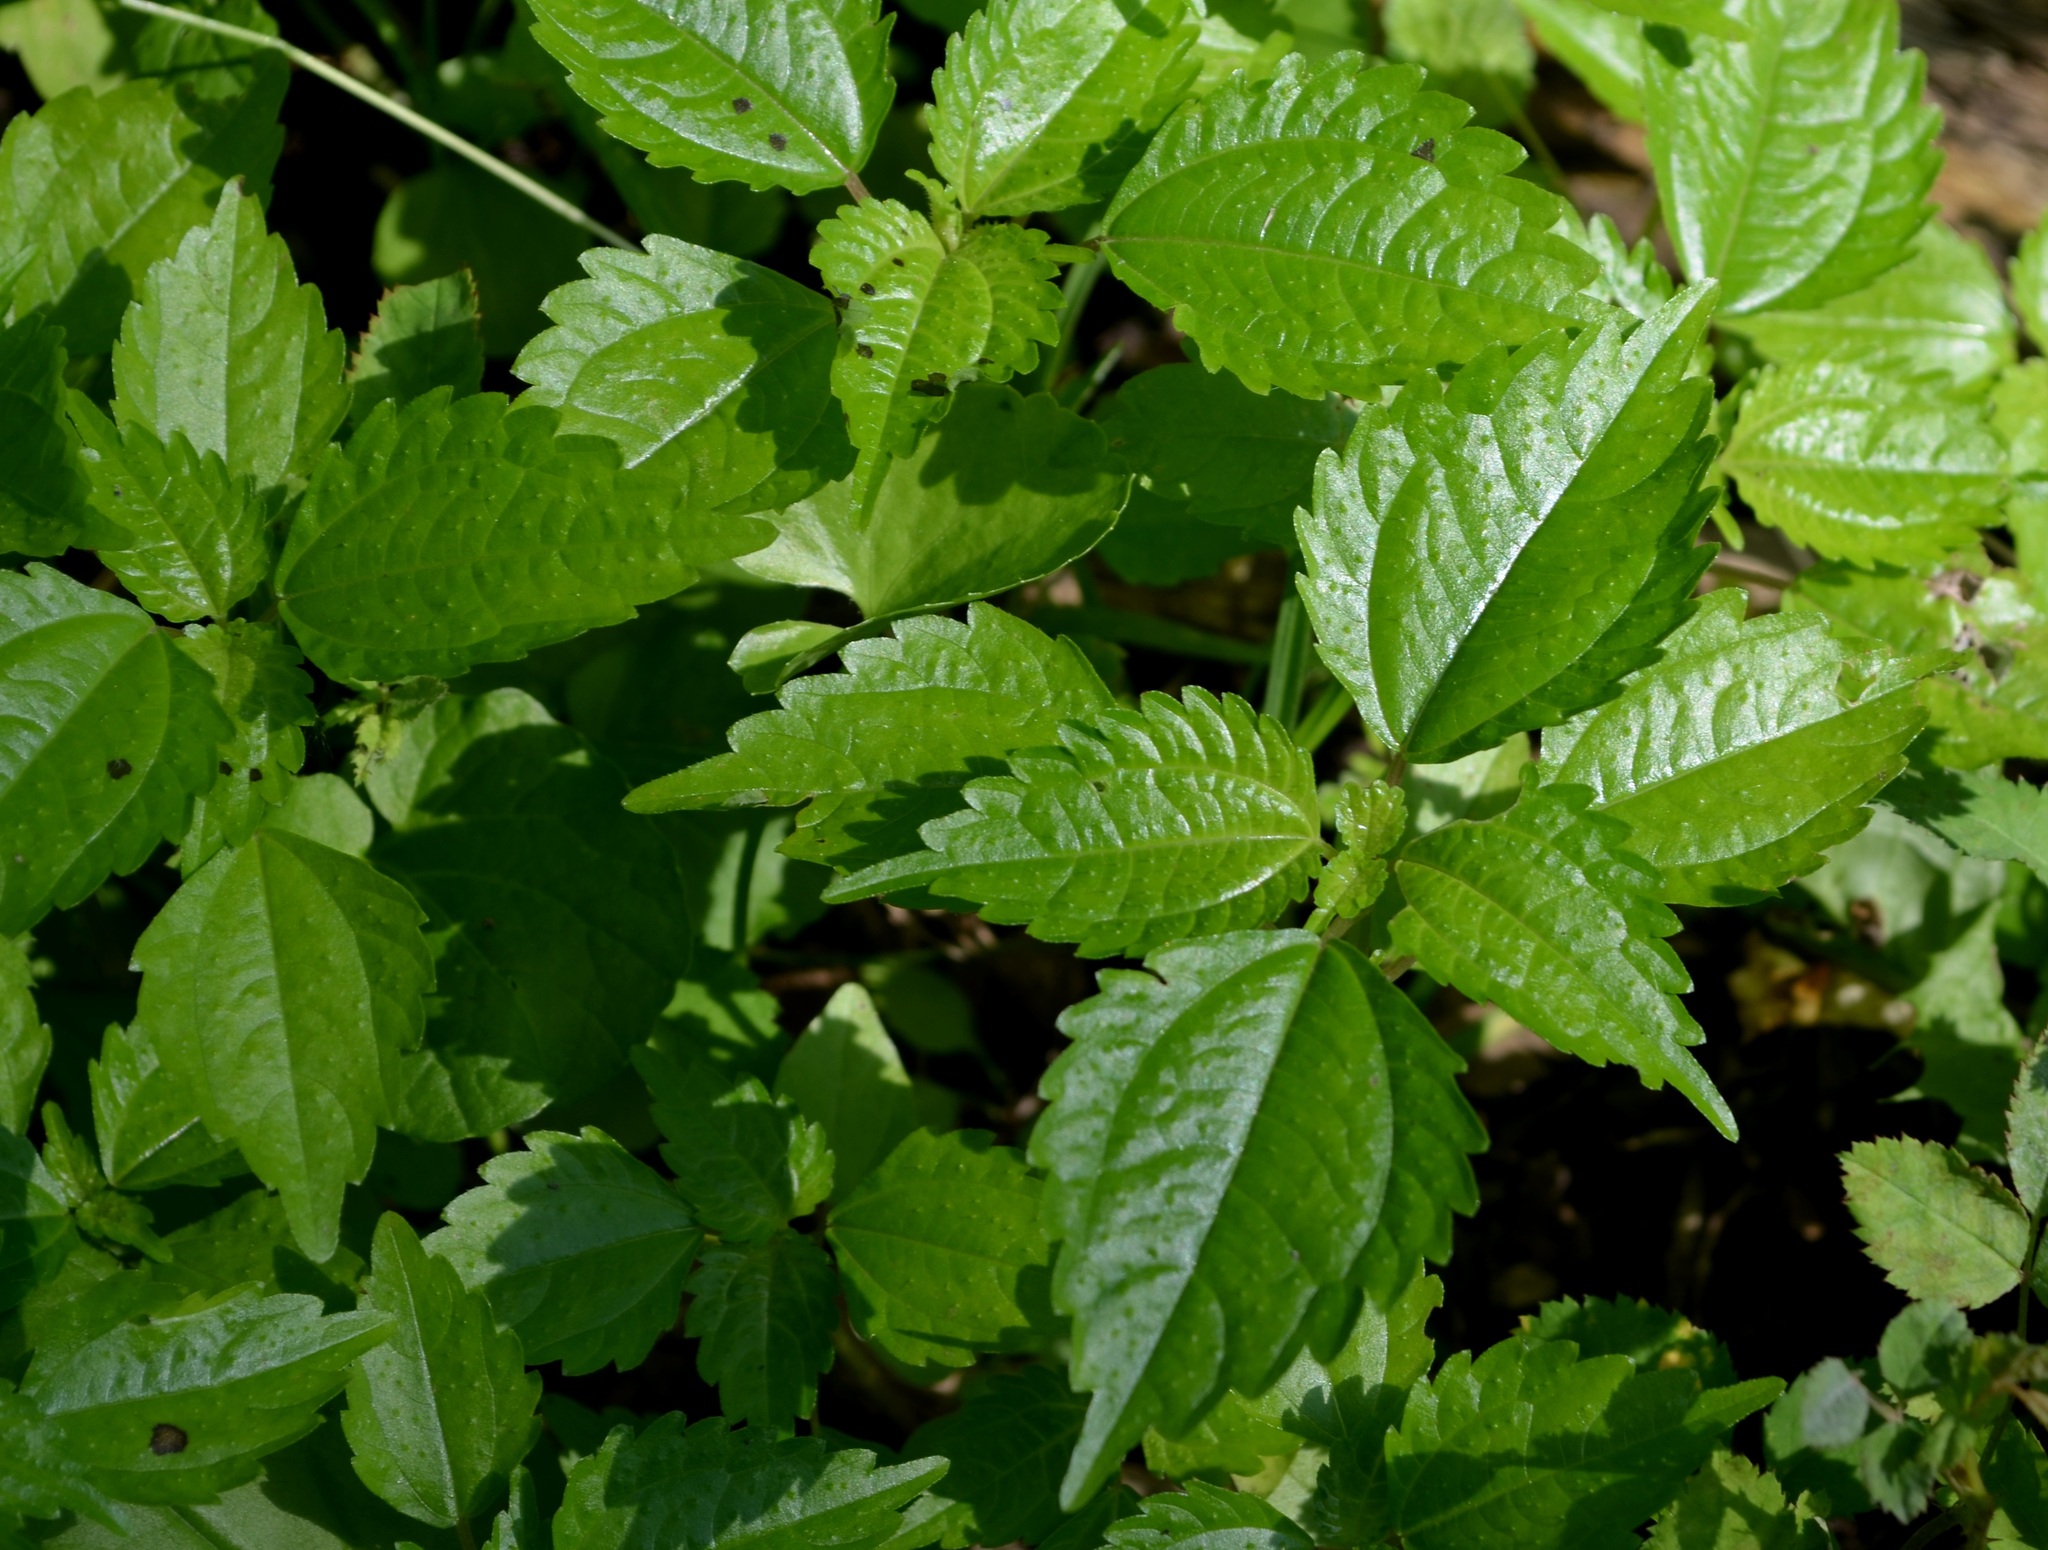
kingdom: Plantae
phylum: Tracheophyta
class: Magnoliopsida
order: Rosales
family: Urticaceae
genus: Pilea
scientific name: Pilea pumila
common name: Clearweed
